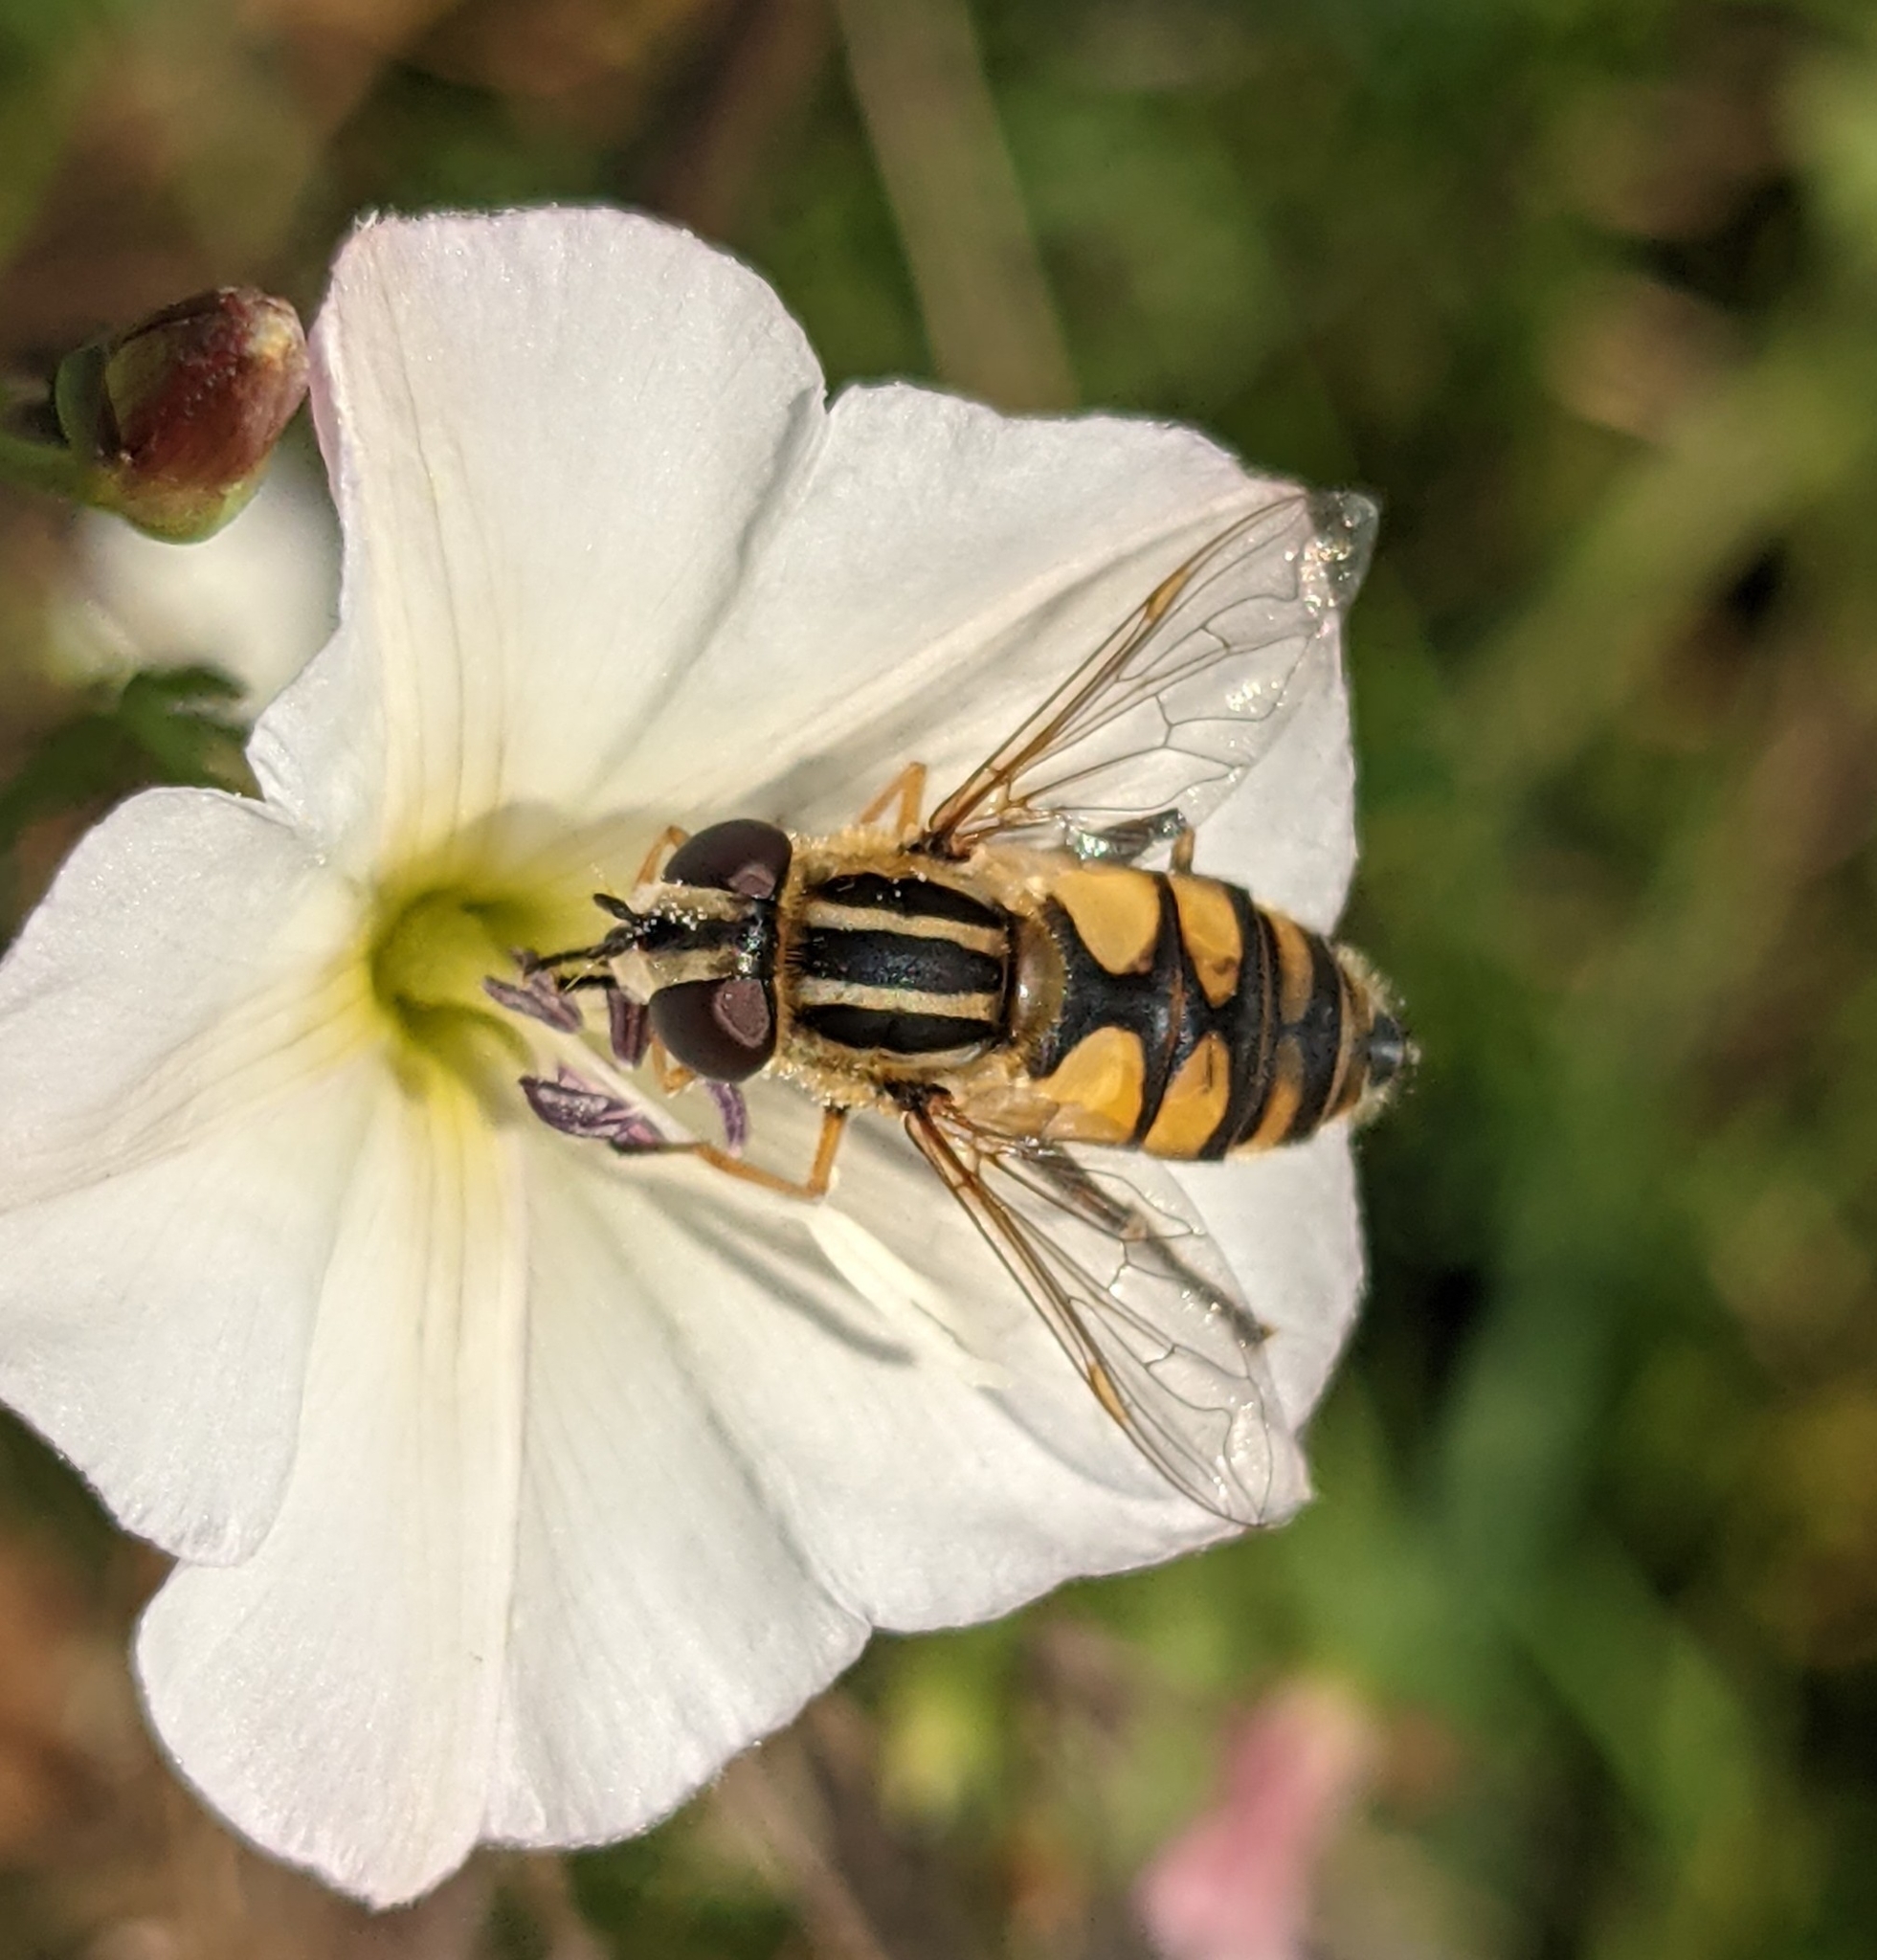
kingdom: Animalia
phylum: Arthropoda
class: Insecta
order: Diptera
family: Syrphidae
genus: Helophilus
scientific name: Helophilus hybridus
